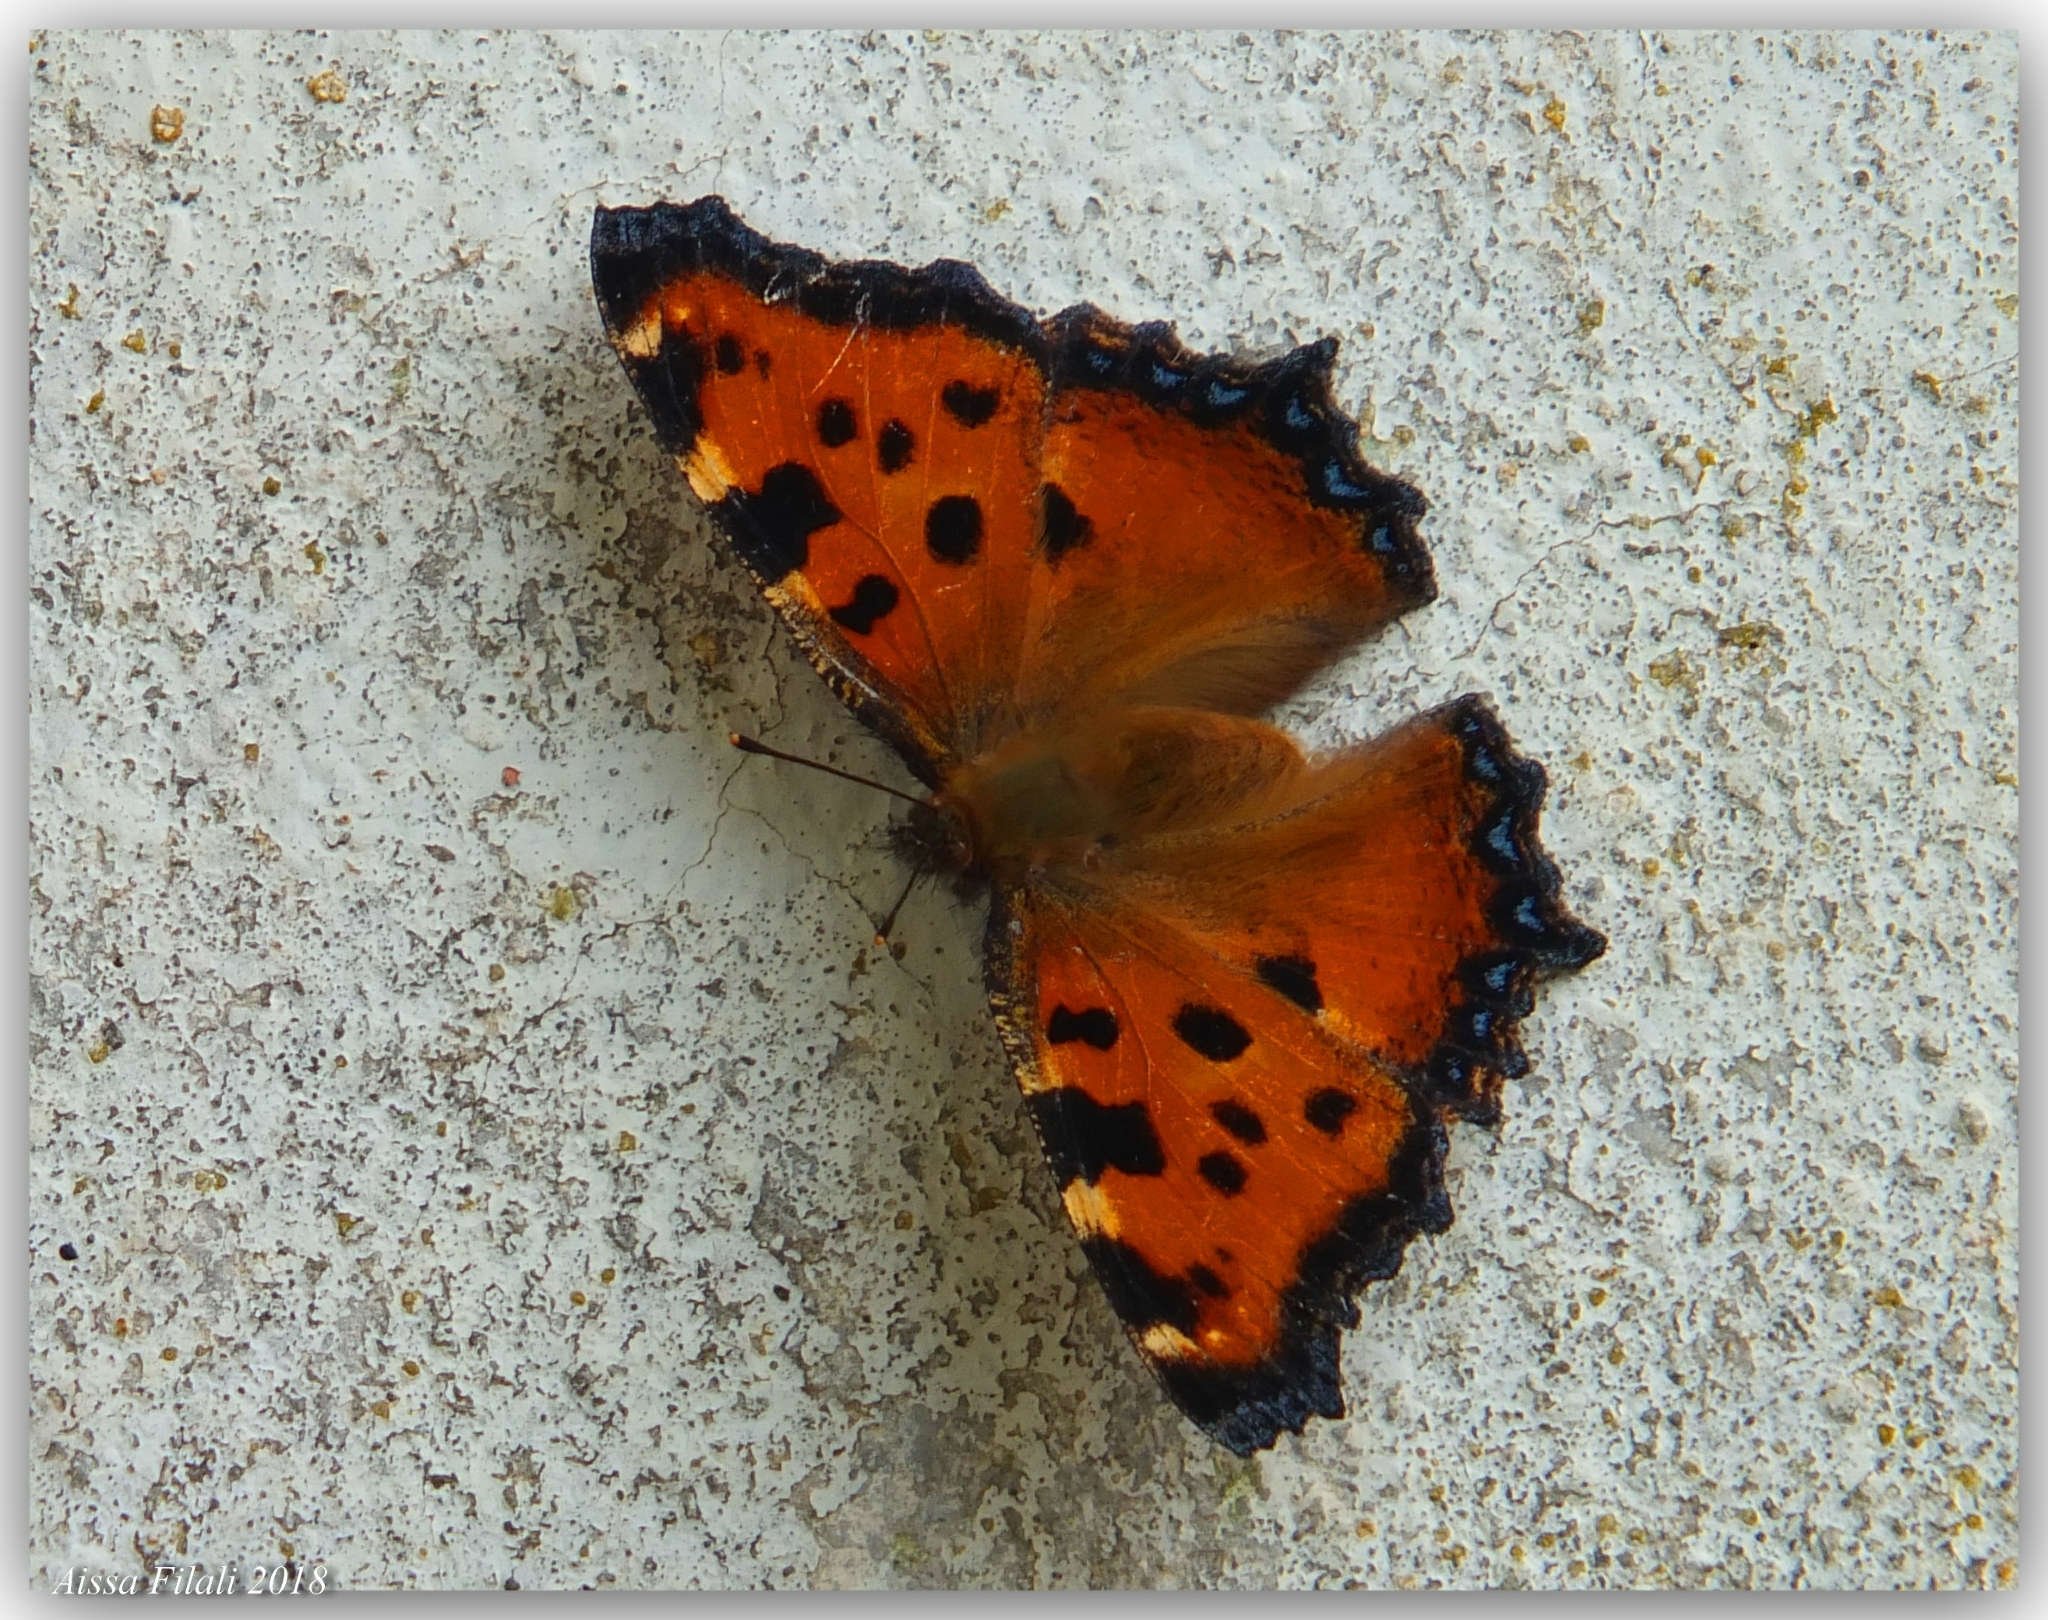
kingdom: Animalia
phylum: Arthropoda
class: Insecta
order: Lepidoptera
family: Nymphalidae
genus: Nymphalis
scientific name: Nymphalis polychloros
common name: Large tortoiseshell
